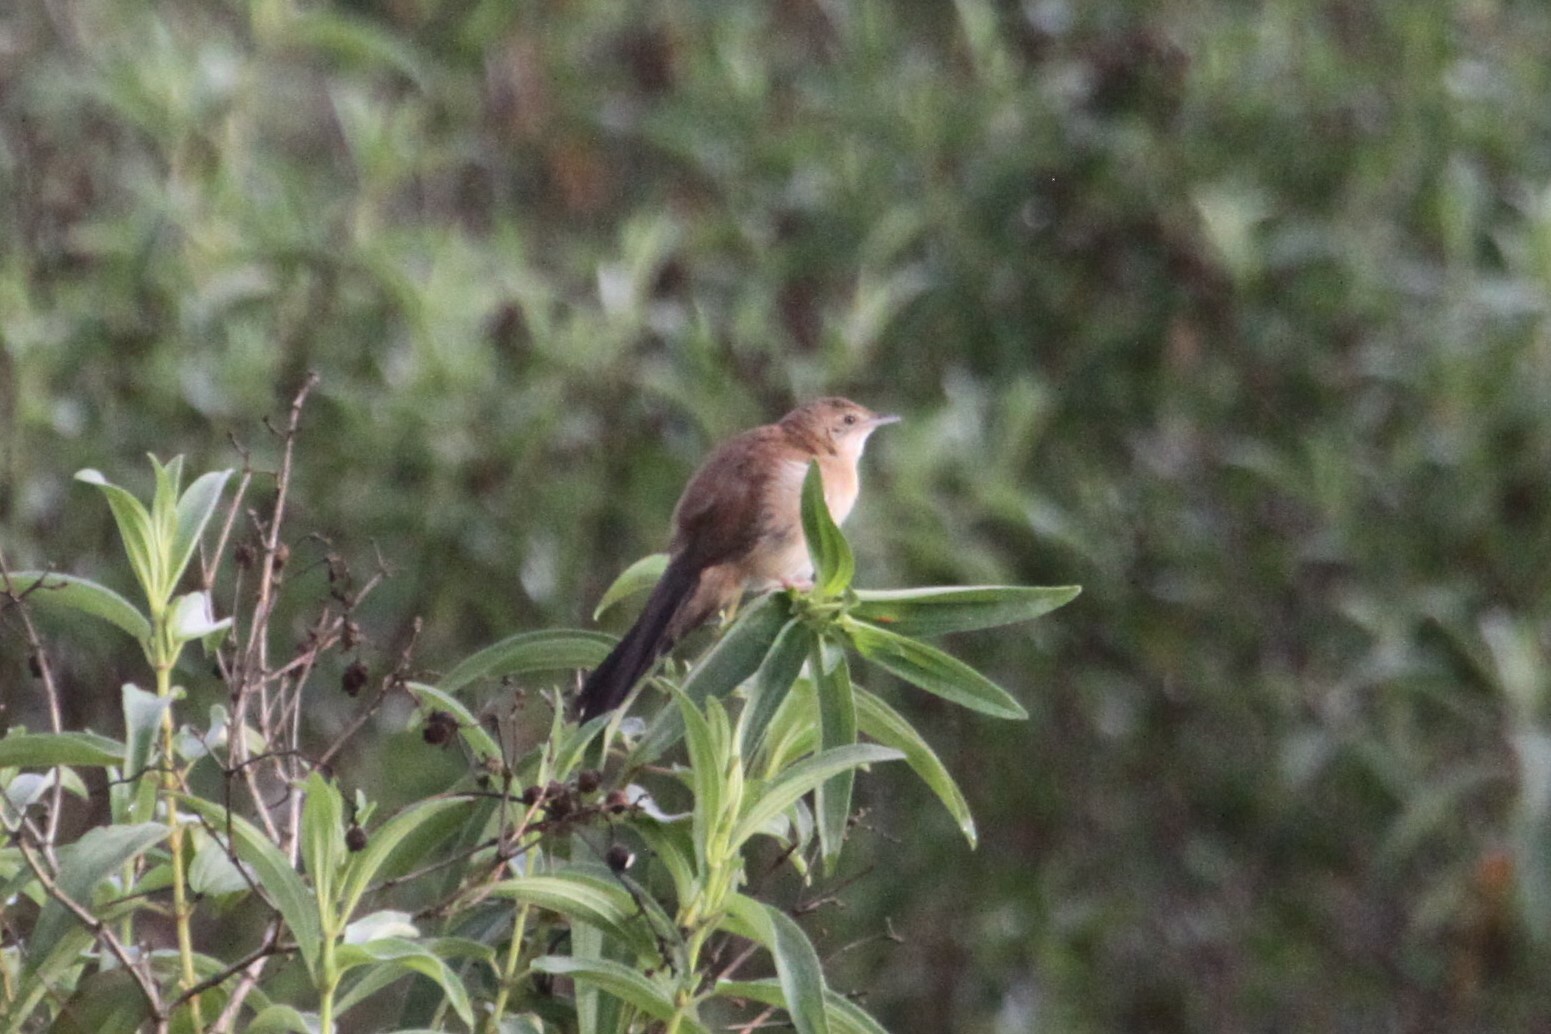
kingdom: Animalia
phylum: Chordata
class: Aves
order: Passeriformes
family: Locustellidae
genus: Schoenicola
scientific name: Schoenicola brevirostris
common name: Fan-tailed grassbird
